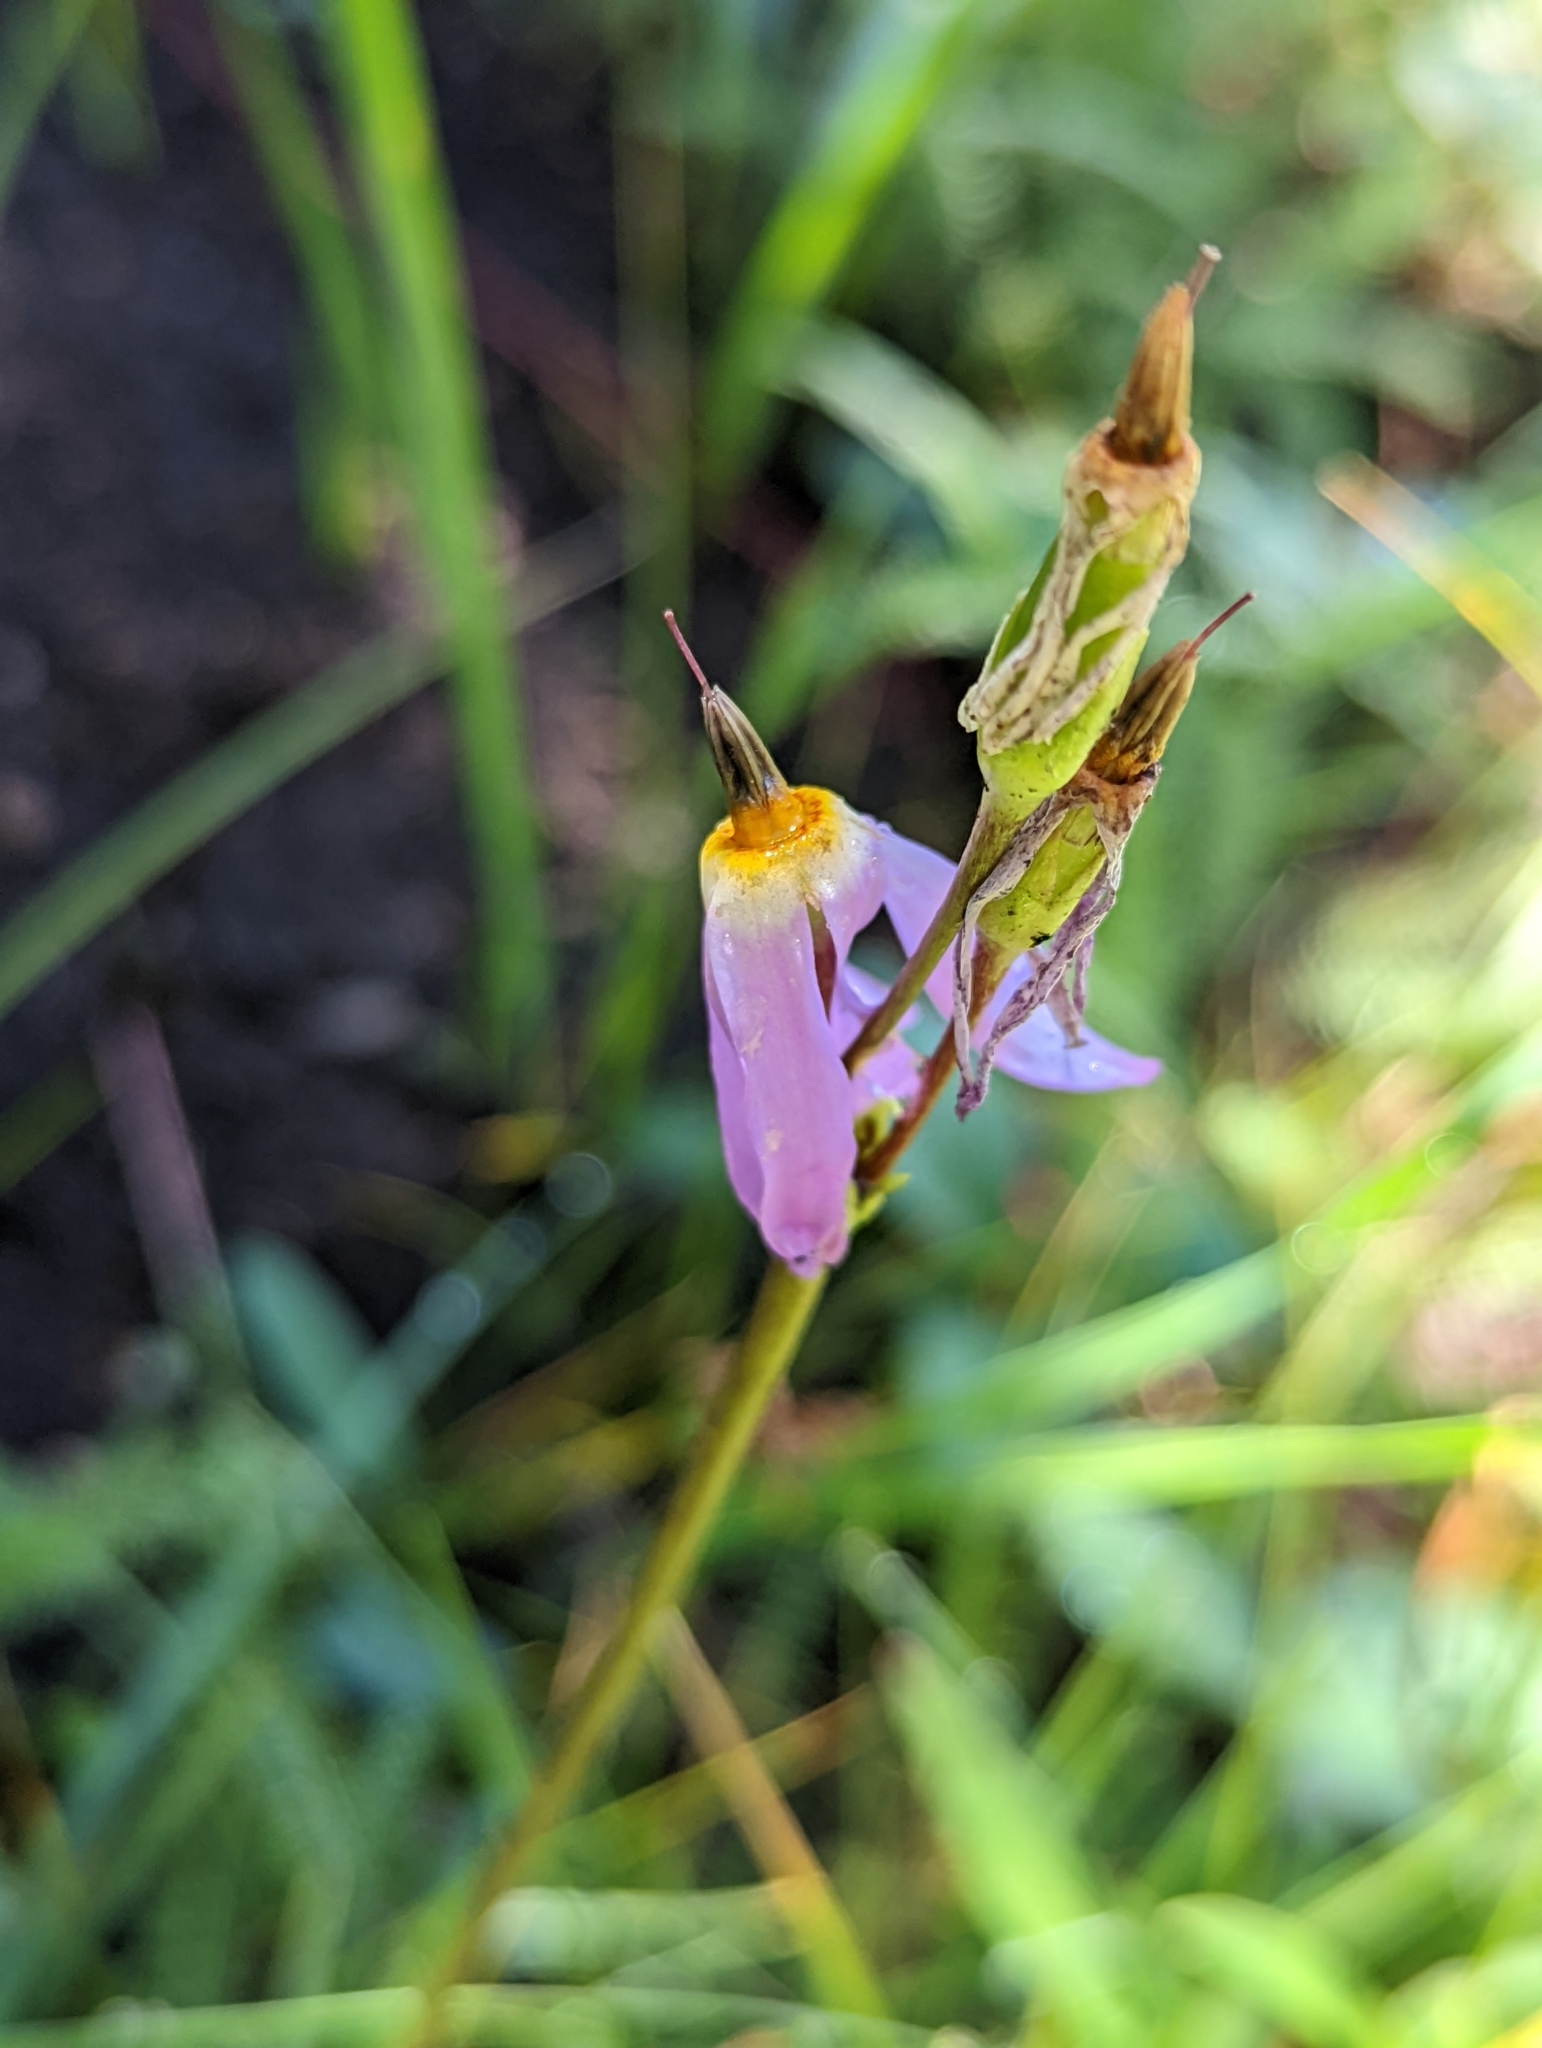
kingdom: Plantae
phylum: Tracheophyta
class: Magnoliopsida
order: Ericales
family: Primulaceae
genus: Dodecatheon
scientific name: Dodecatheon pulchellum
